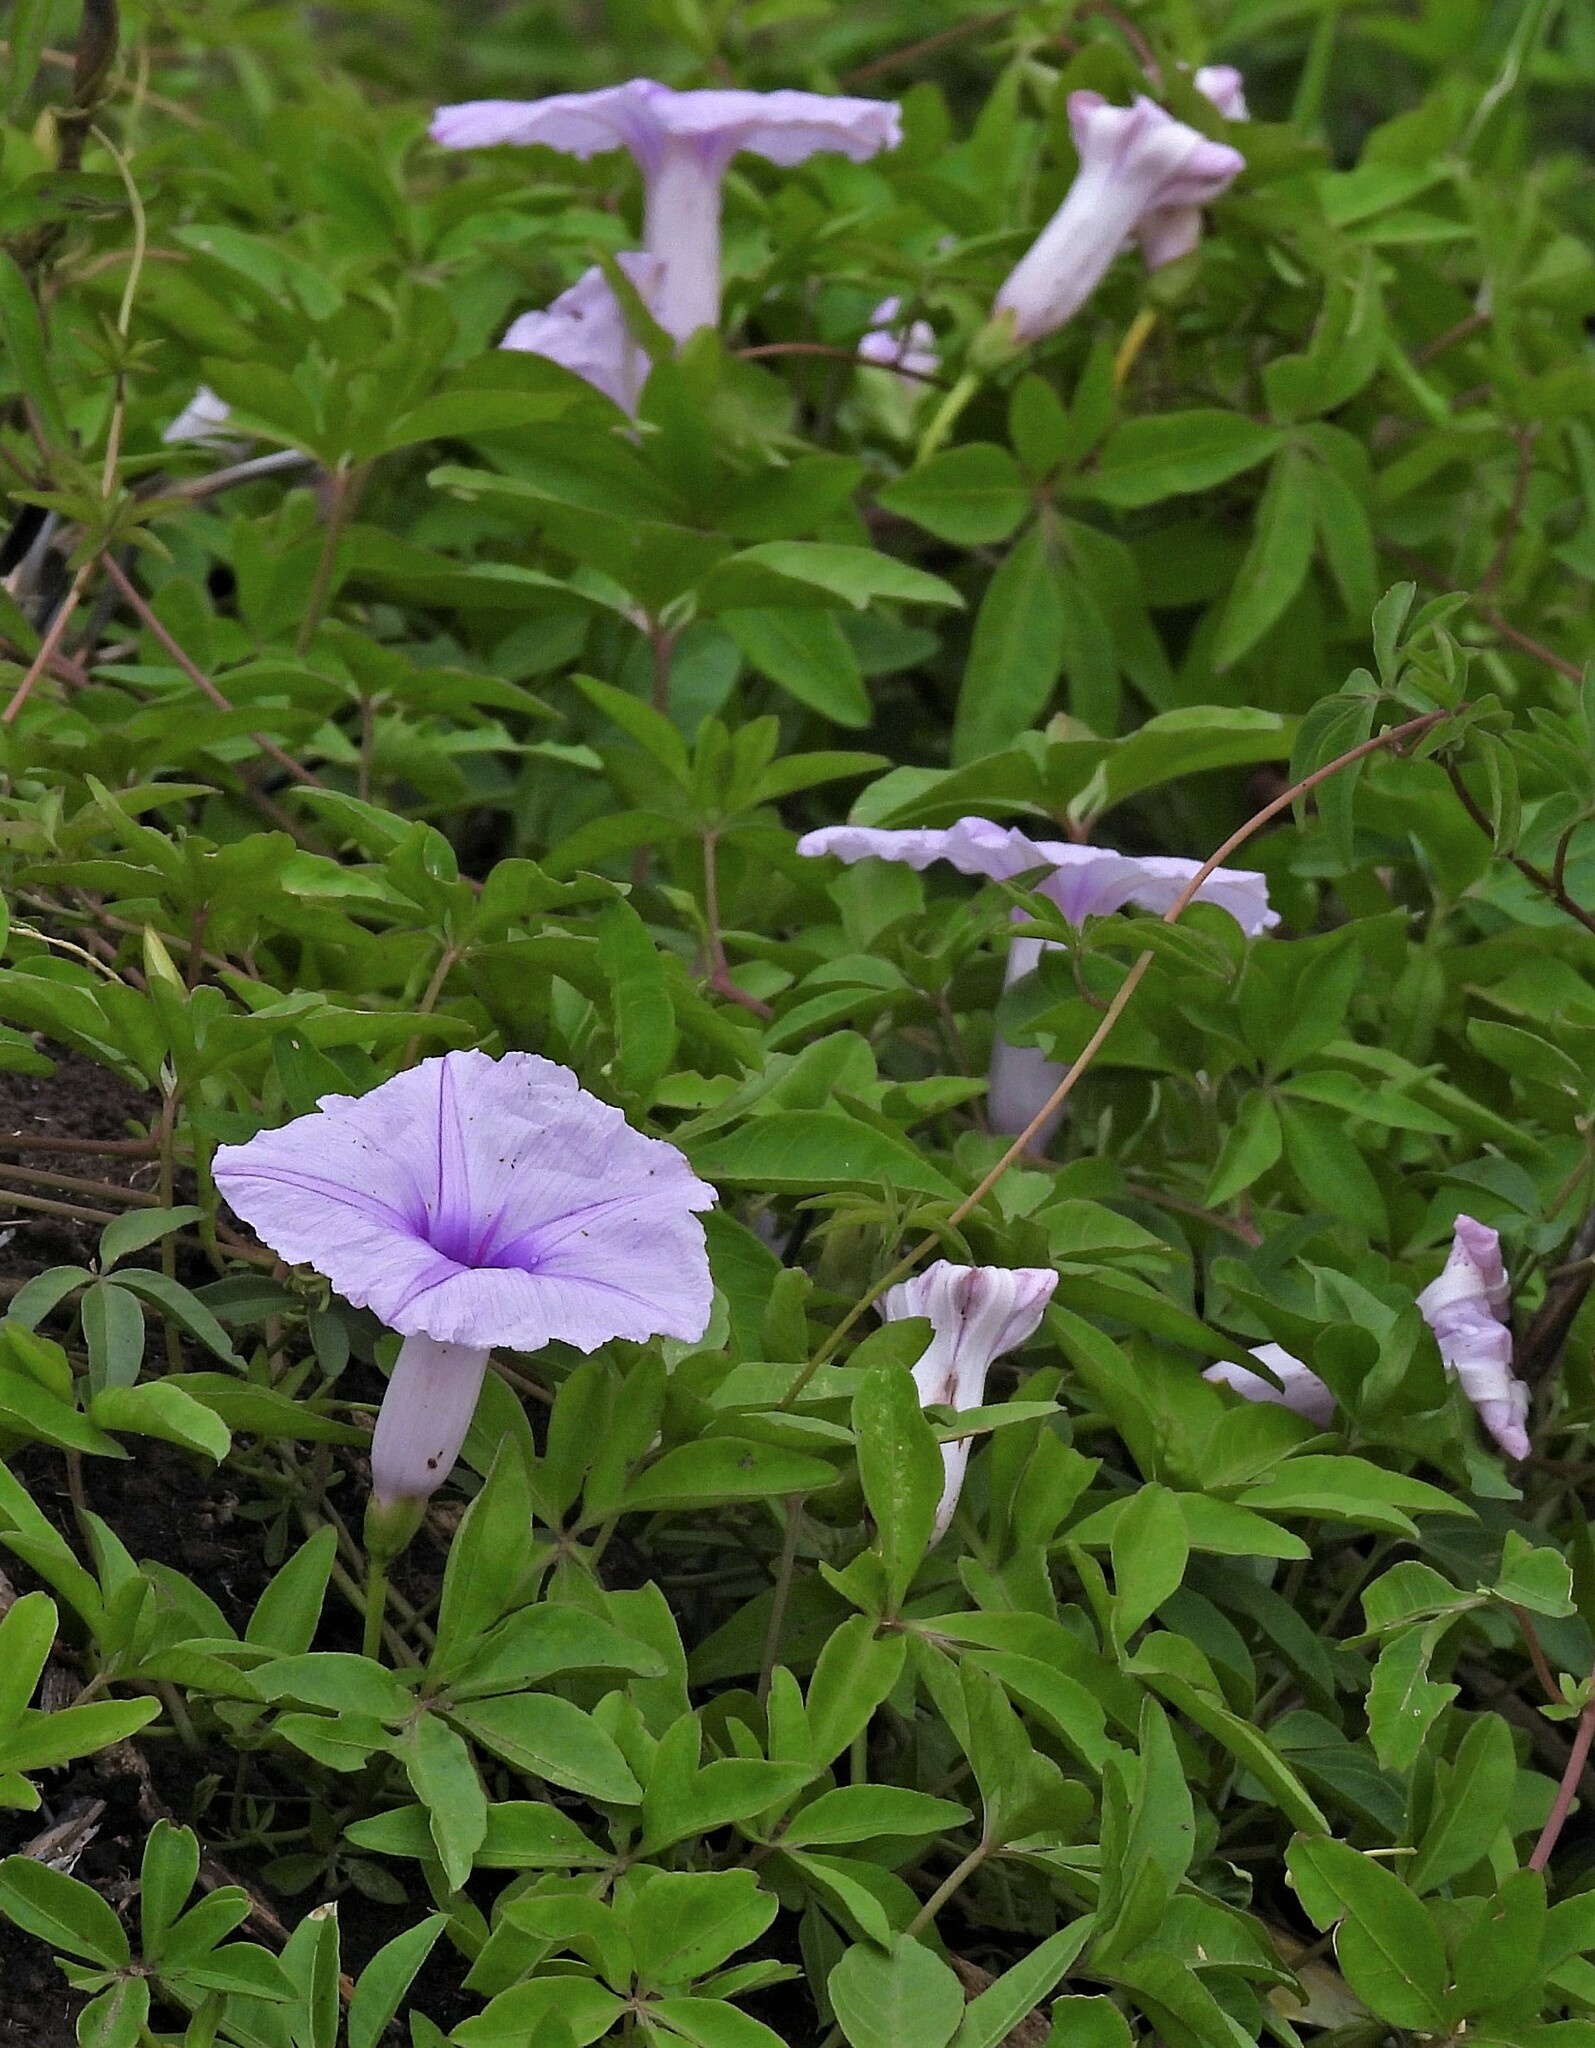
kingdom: Plantae
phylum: Tracheophyta
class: Magnoliopsida
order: Solanales
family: Convolvulaceae
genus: Ipomoea
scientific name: Ipomoea cairica
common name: Mile a minute vine
